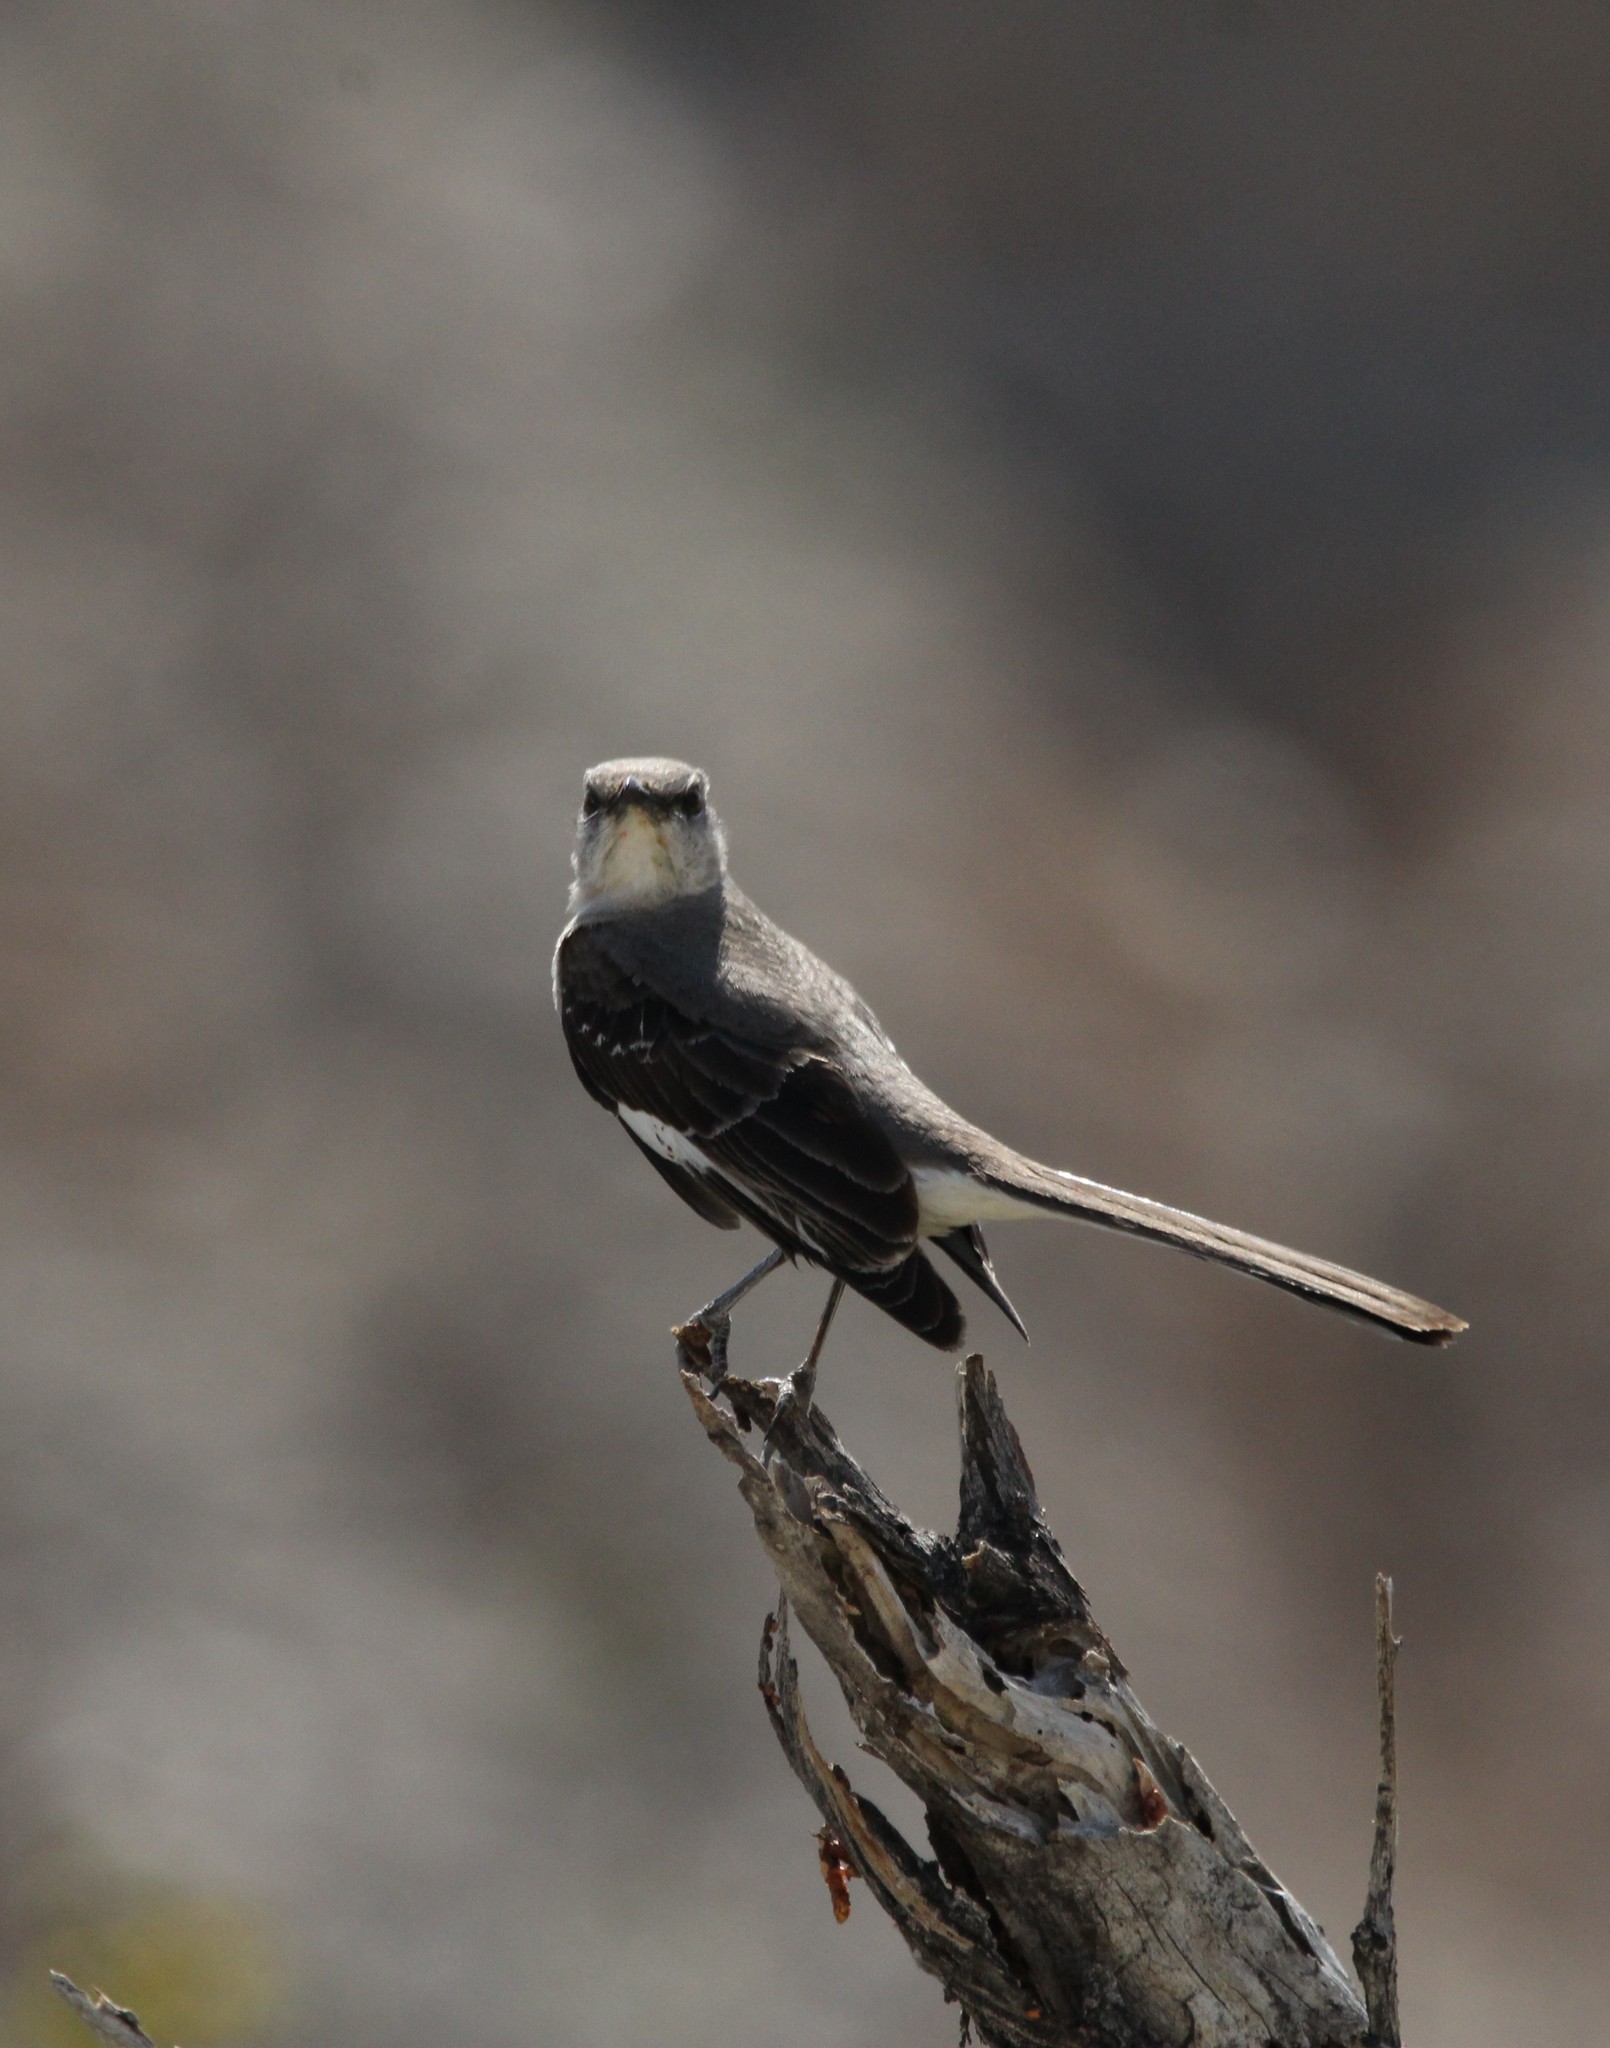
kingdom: Animalia
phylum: Chordata
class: Aves
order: Passeriformes
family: Mimidae
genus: Mimus
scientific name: Mimus polyglottos
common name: Northern mockingbird
